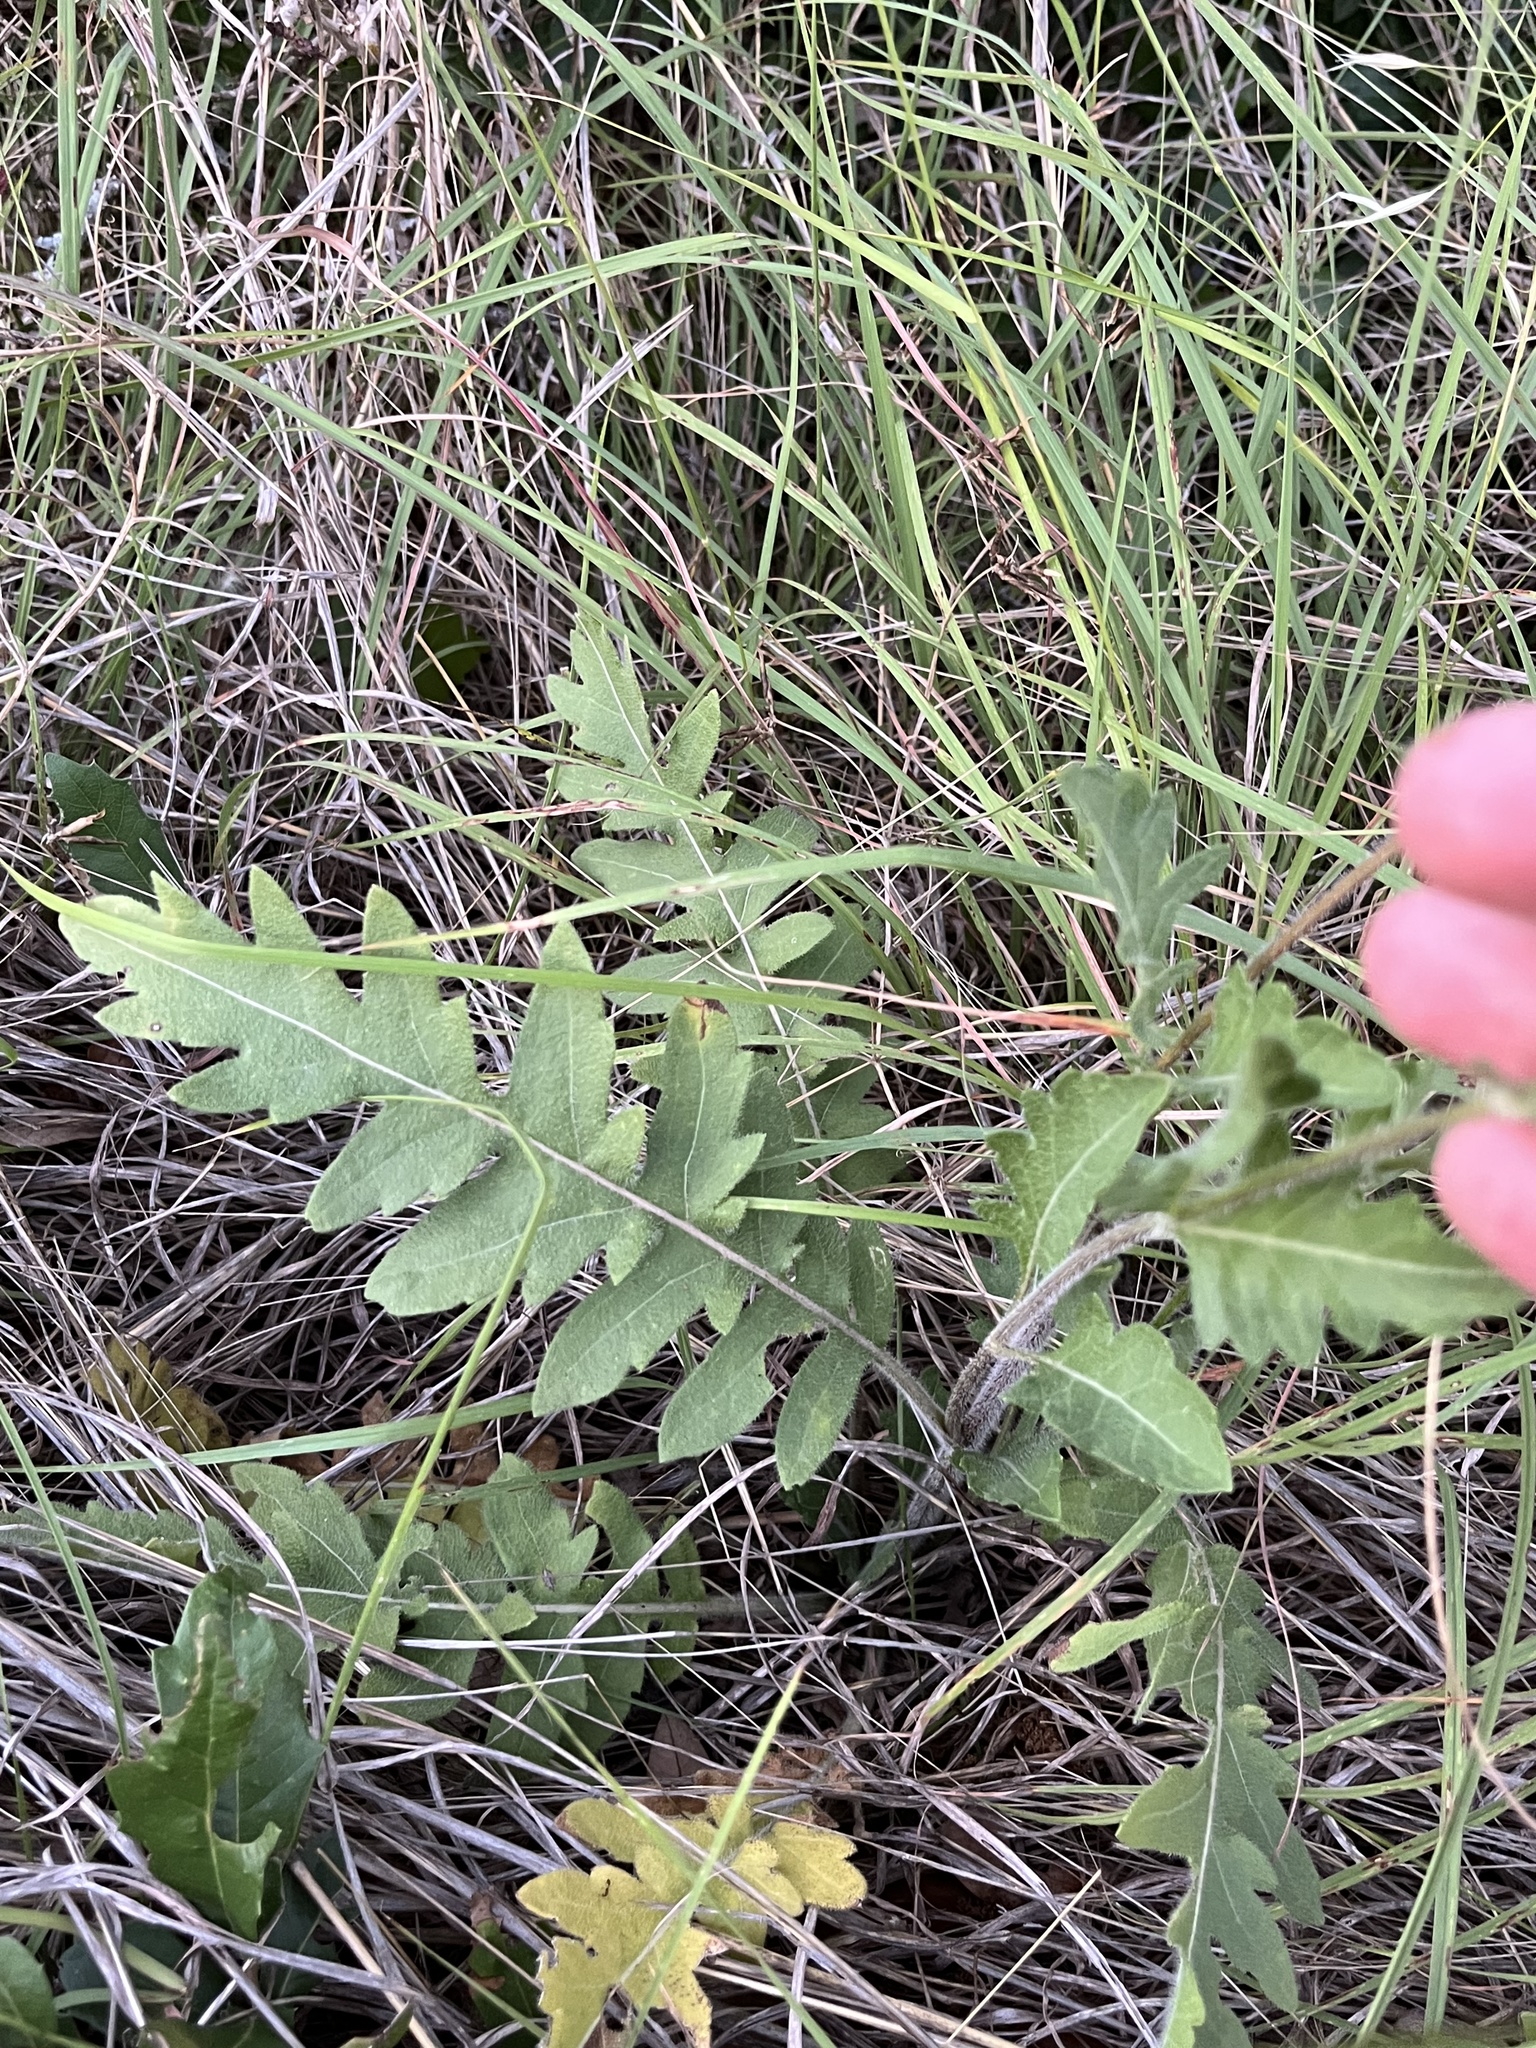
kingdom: Plantae
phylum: Tracheophyta
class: Magnoliopsida
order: Asterales
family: Asteraceae
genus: Engelmannia
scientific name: Engelmannia peristenia
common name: Engelmann's daisy
